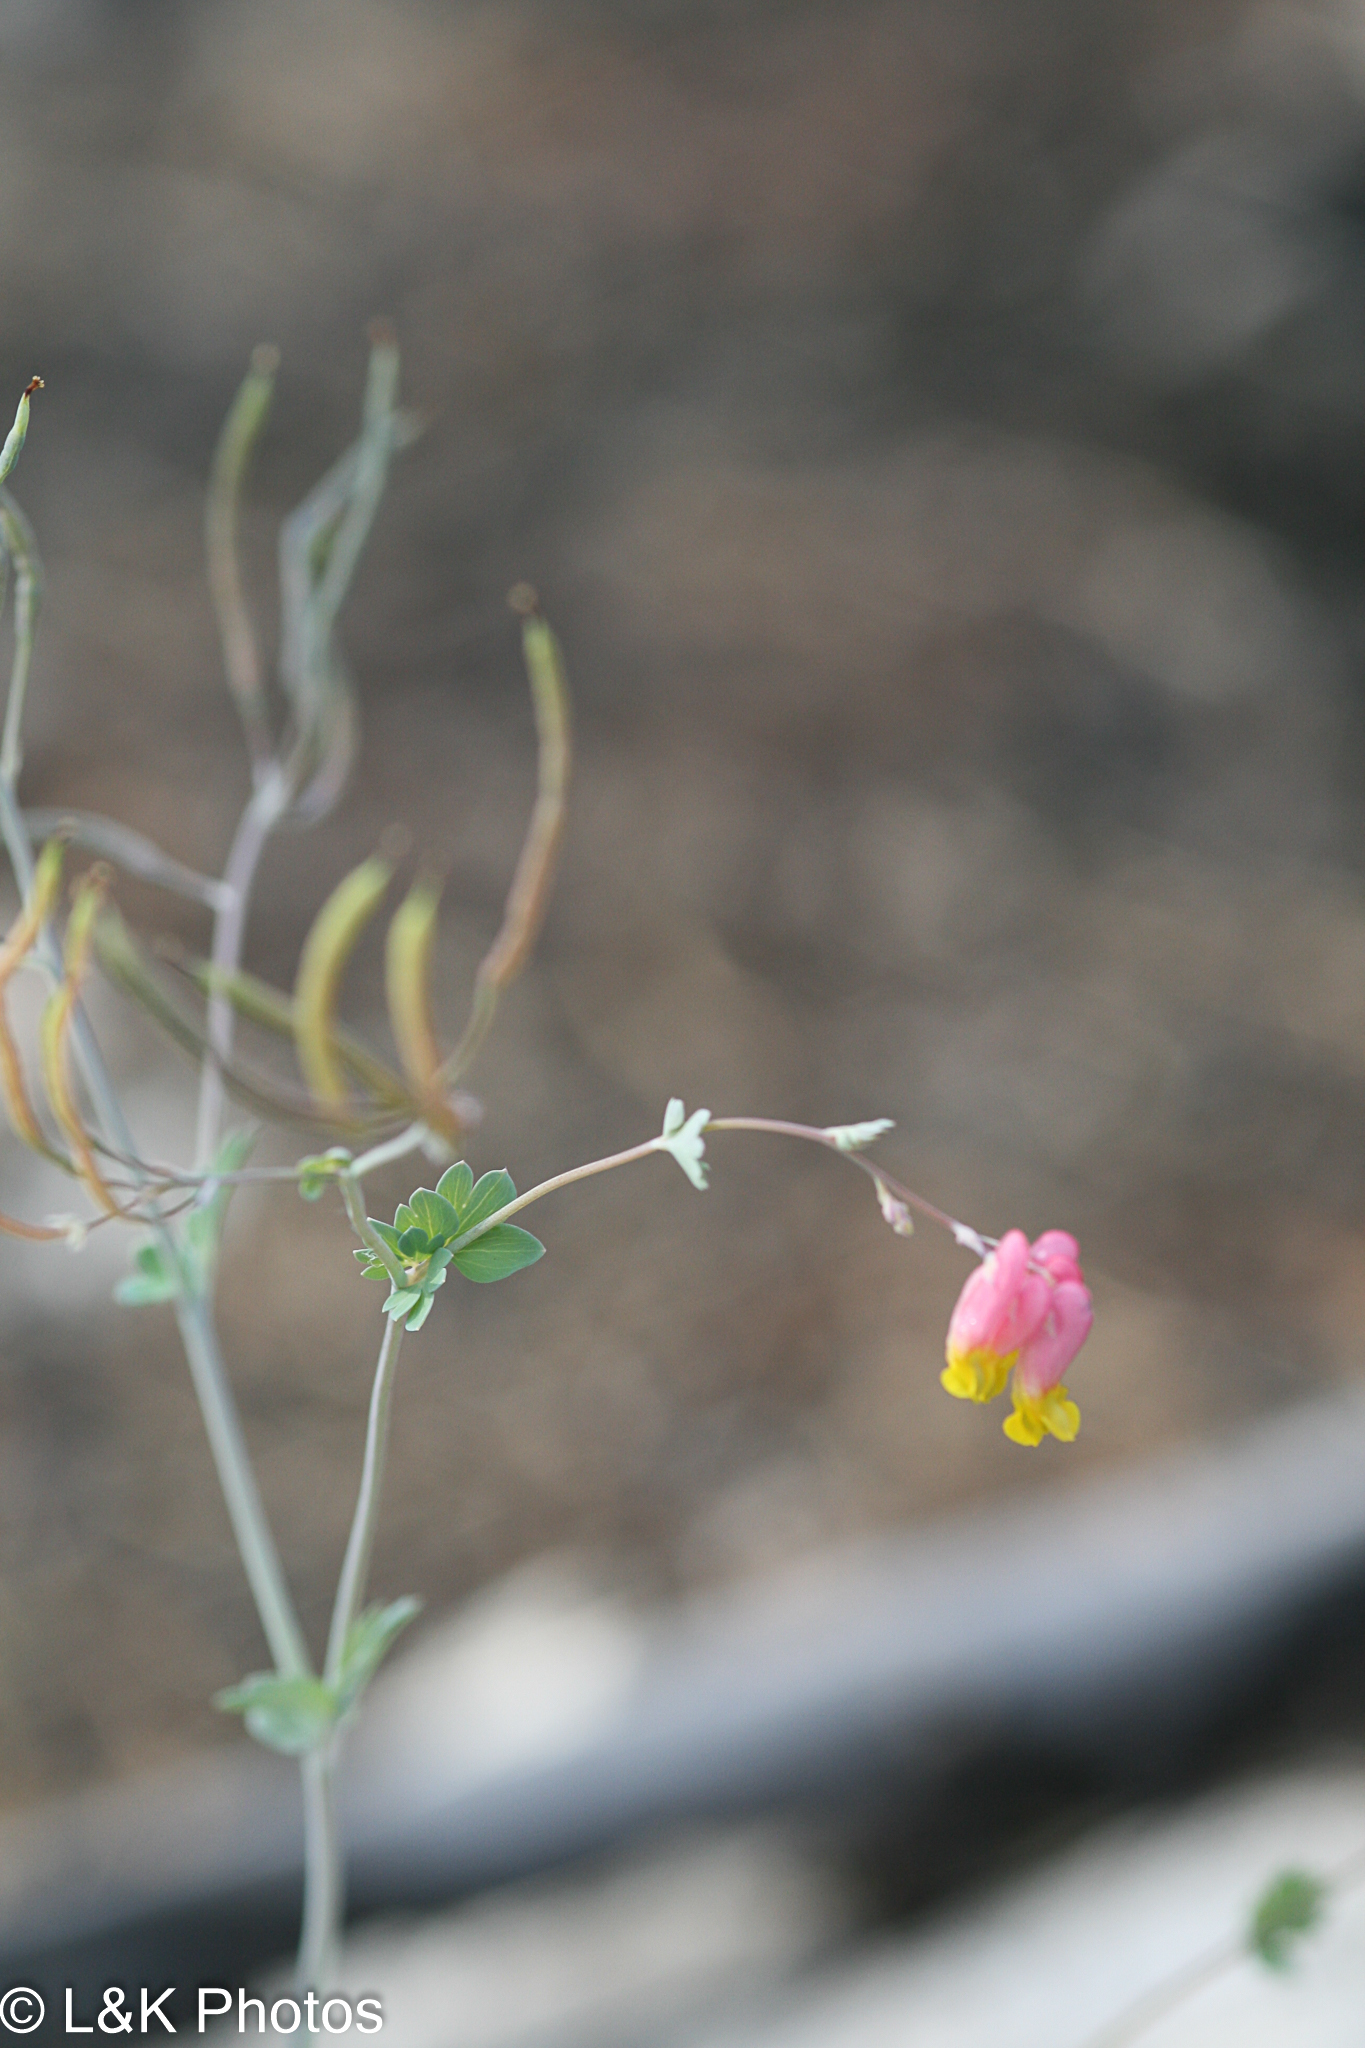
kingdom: Plantae
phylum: Tracheophyta
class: Magnoliopsida
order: Ranunculales
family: Papaveraceae
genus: Capnoides
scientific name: Capnoides sempervirens
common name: Rock harlequin
